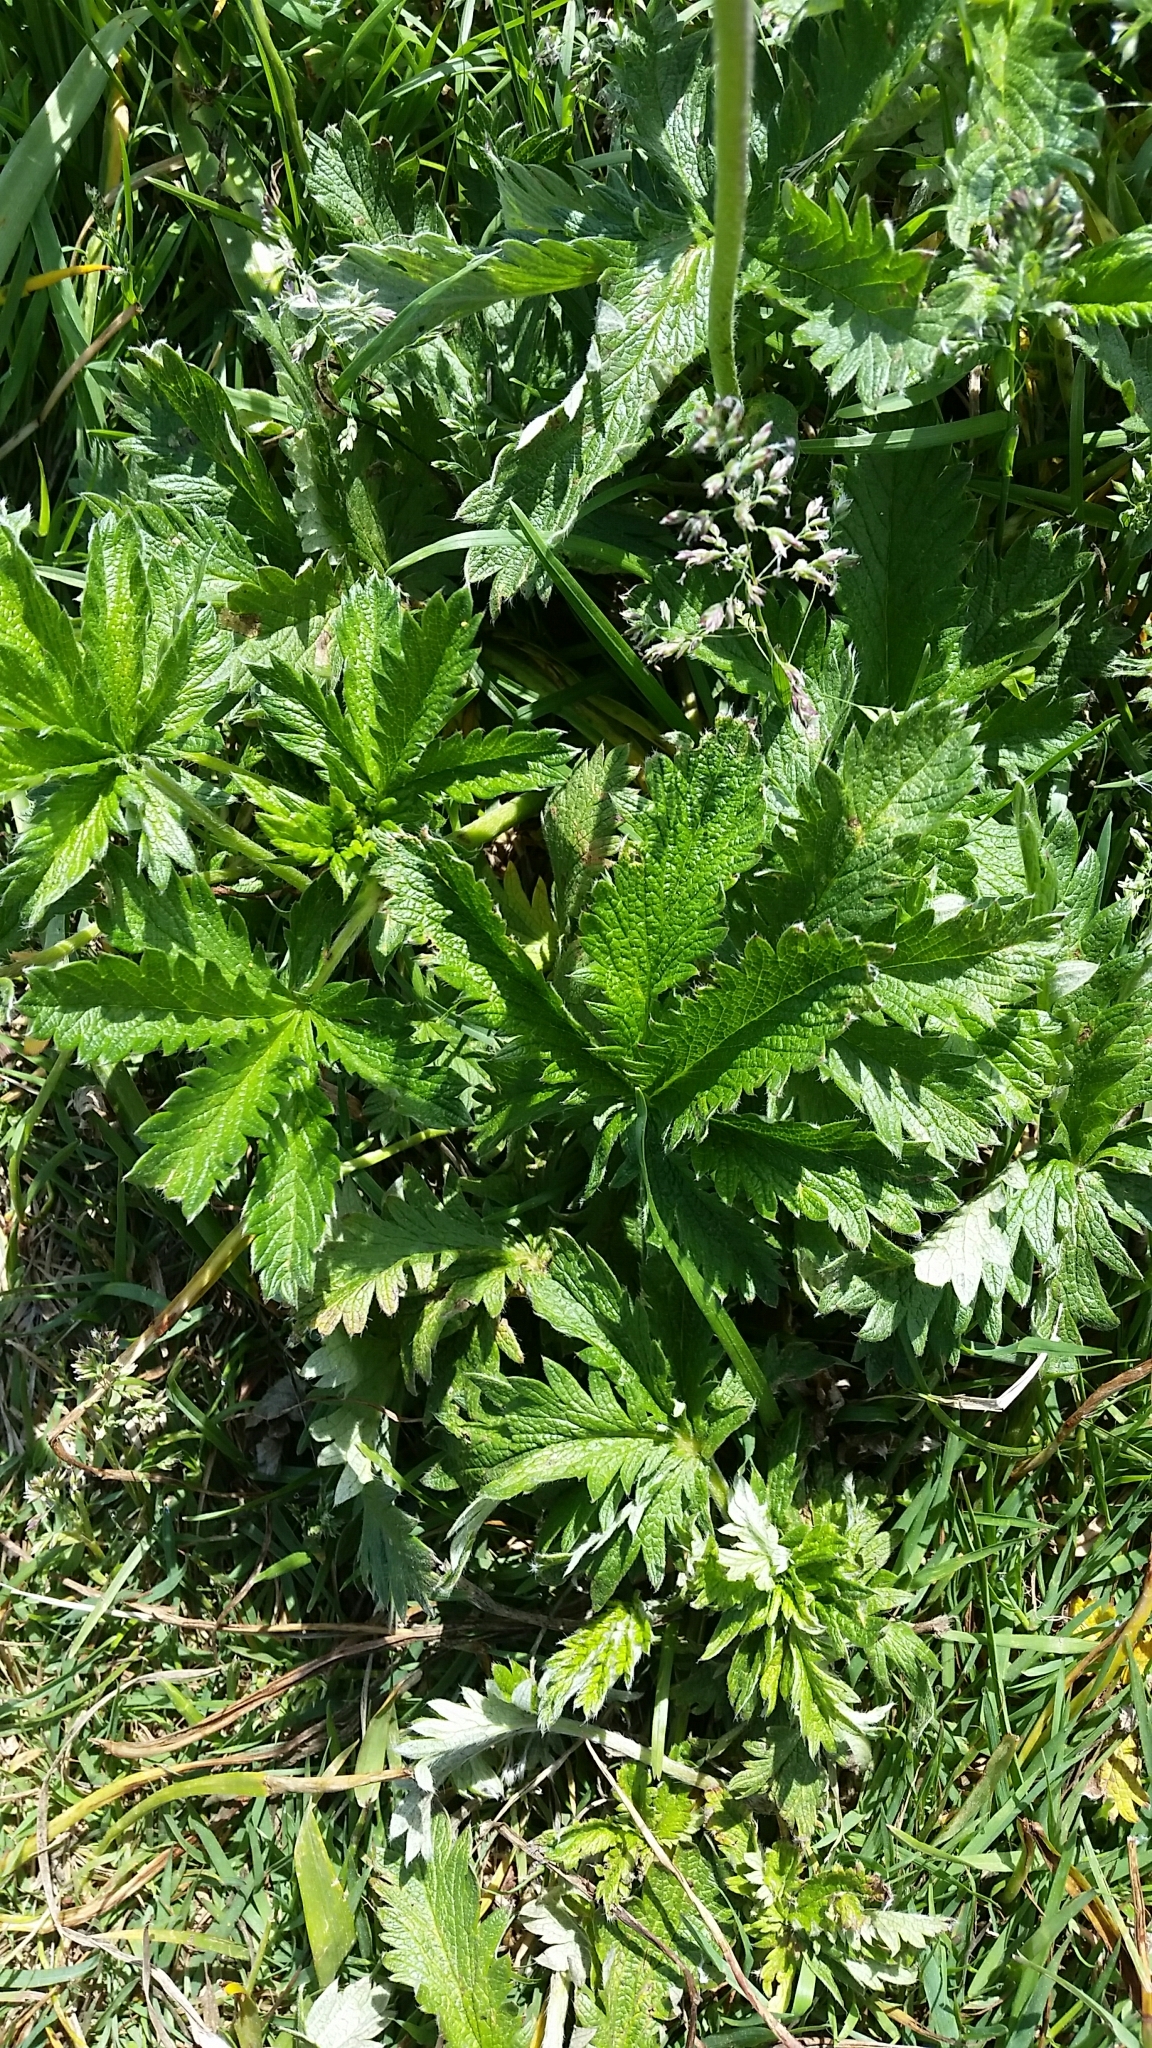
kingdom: Plantae
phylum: Tracheophyta
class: Magnoliopsida
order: Rosales
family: Rosaceae
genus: Potentilla
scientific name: Potentilla gracilis
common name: Graceful cinquefoil
